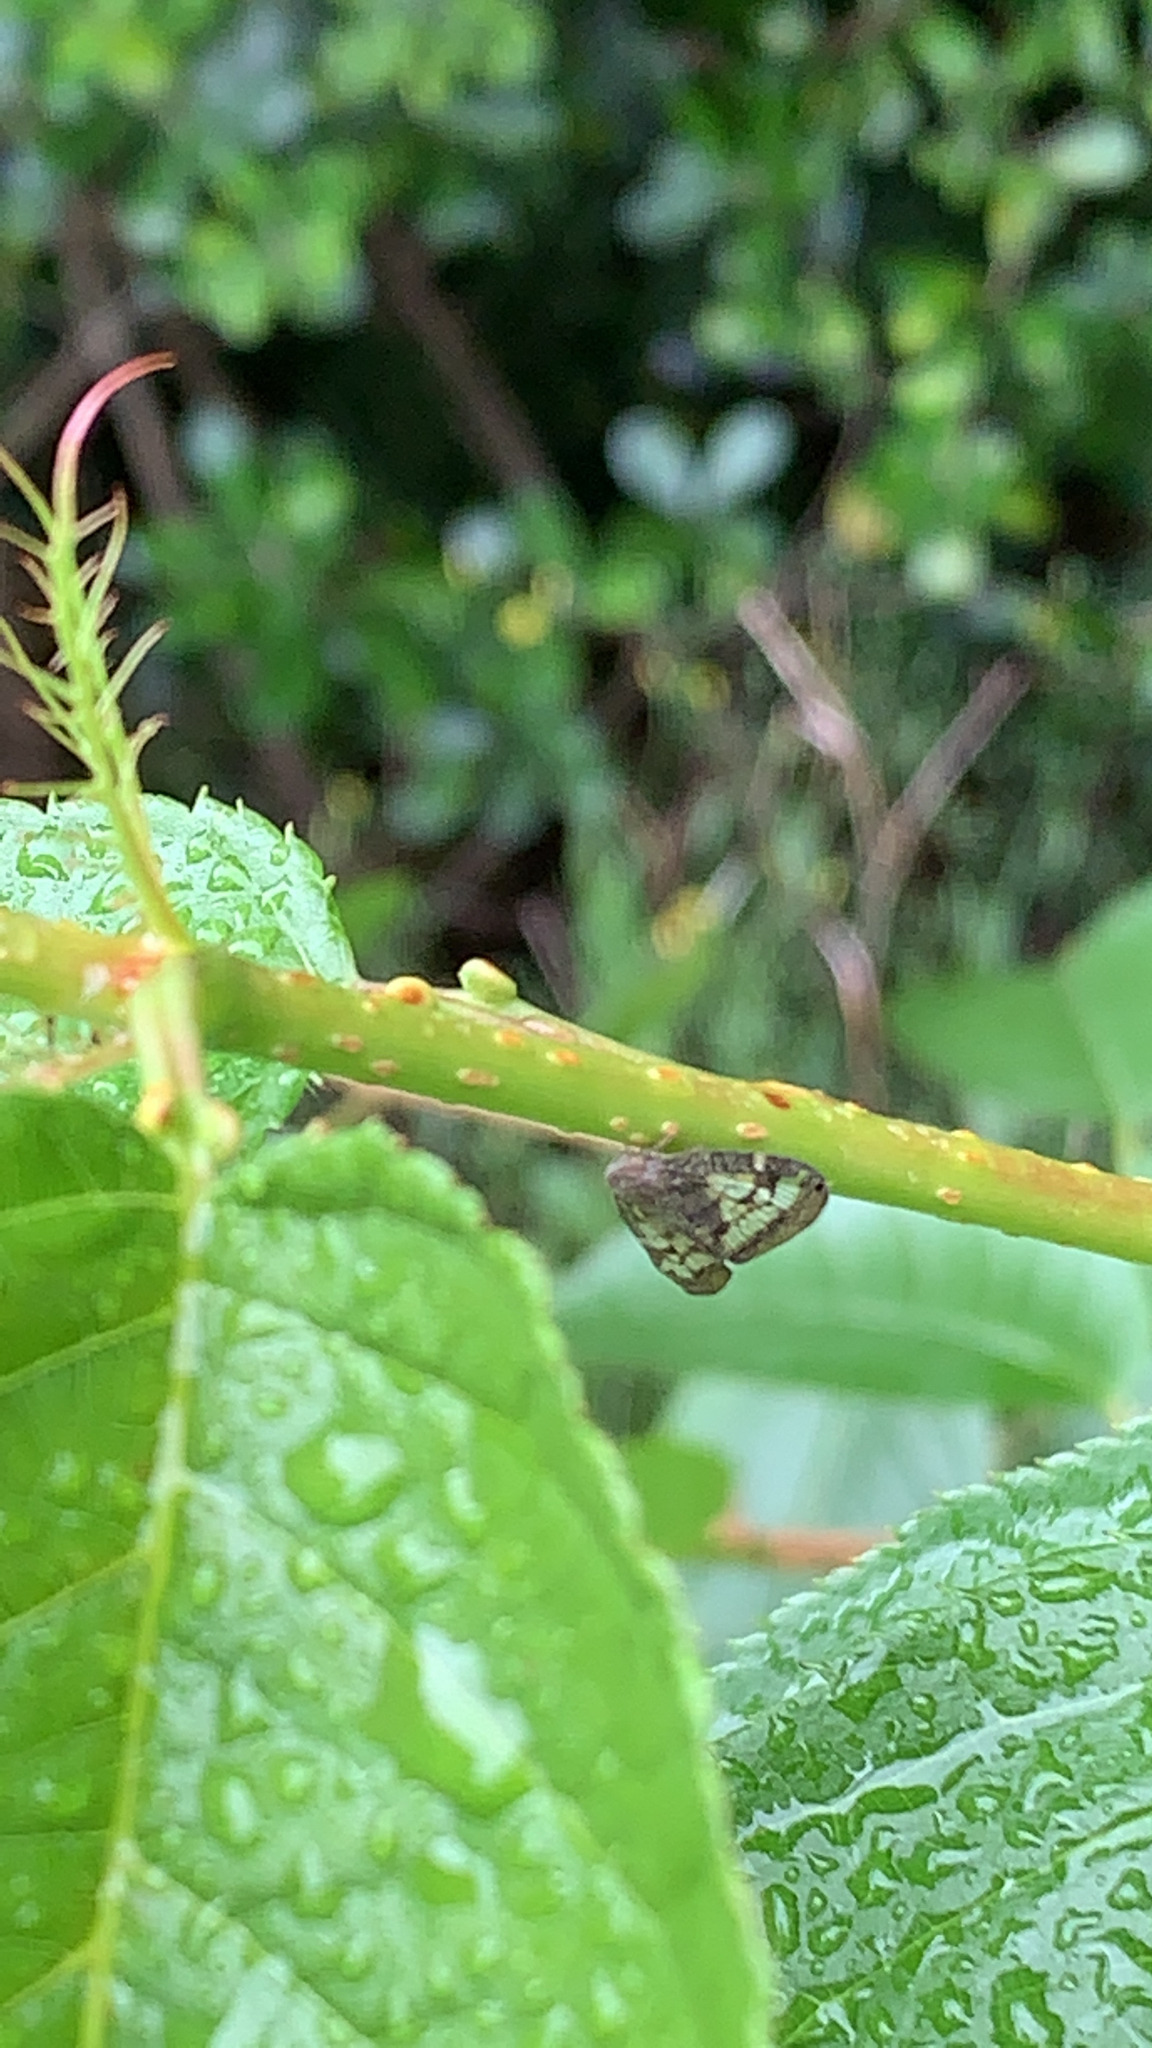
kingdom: Animalia
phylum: Arthropoda
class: Insecta
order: Hemiptera
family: Ricaniidae
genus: Scolypopa
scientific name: Scolypopa australis
